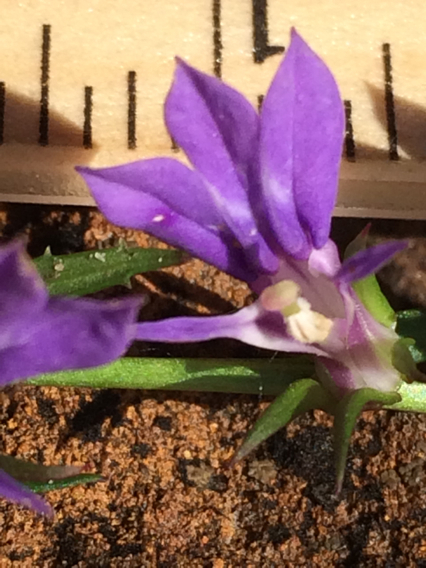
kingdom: Plantae
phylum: Tracheophyta
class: Magnoliopsida
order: Asterales
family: Campanulaceae
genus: Lobelia
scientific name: Lobelia puberula
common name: Purple dewdrop
